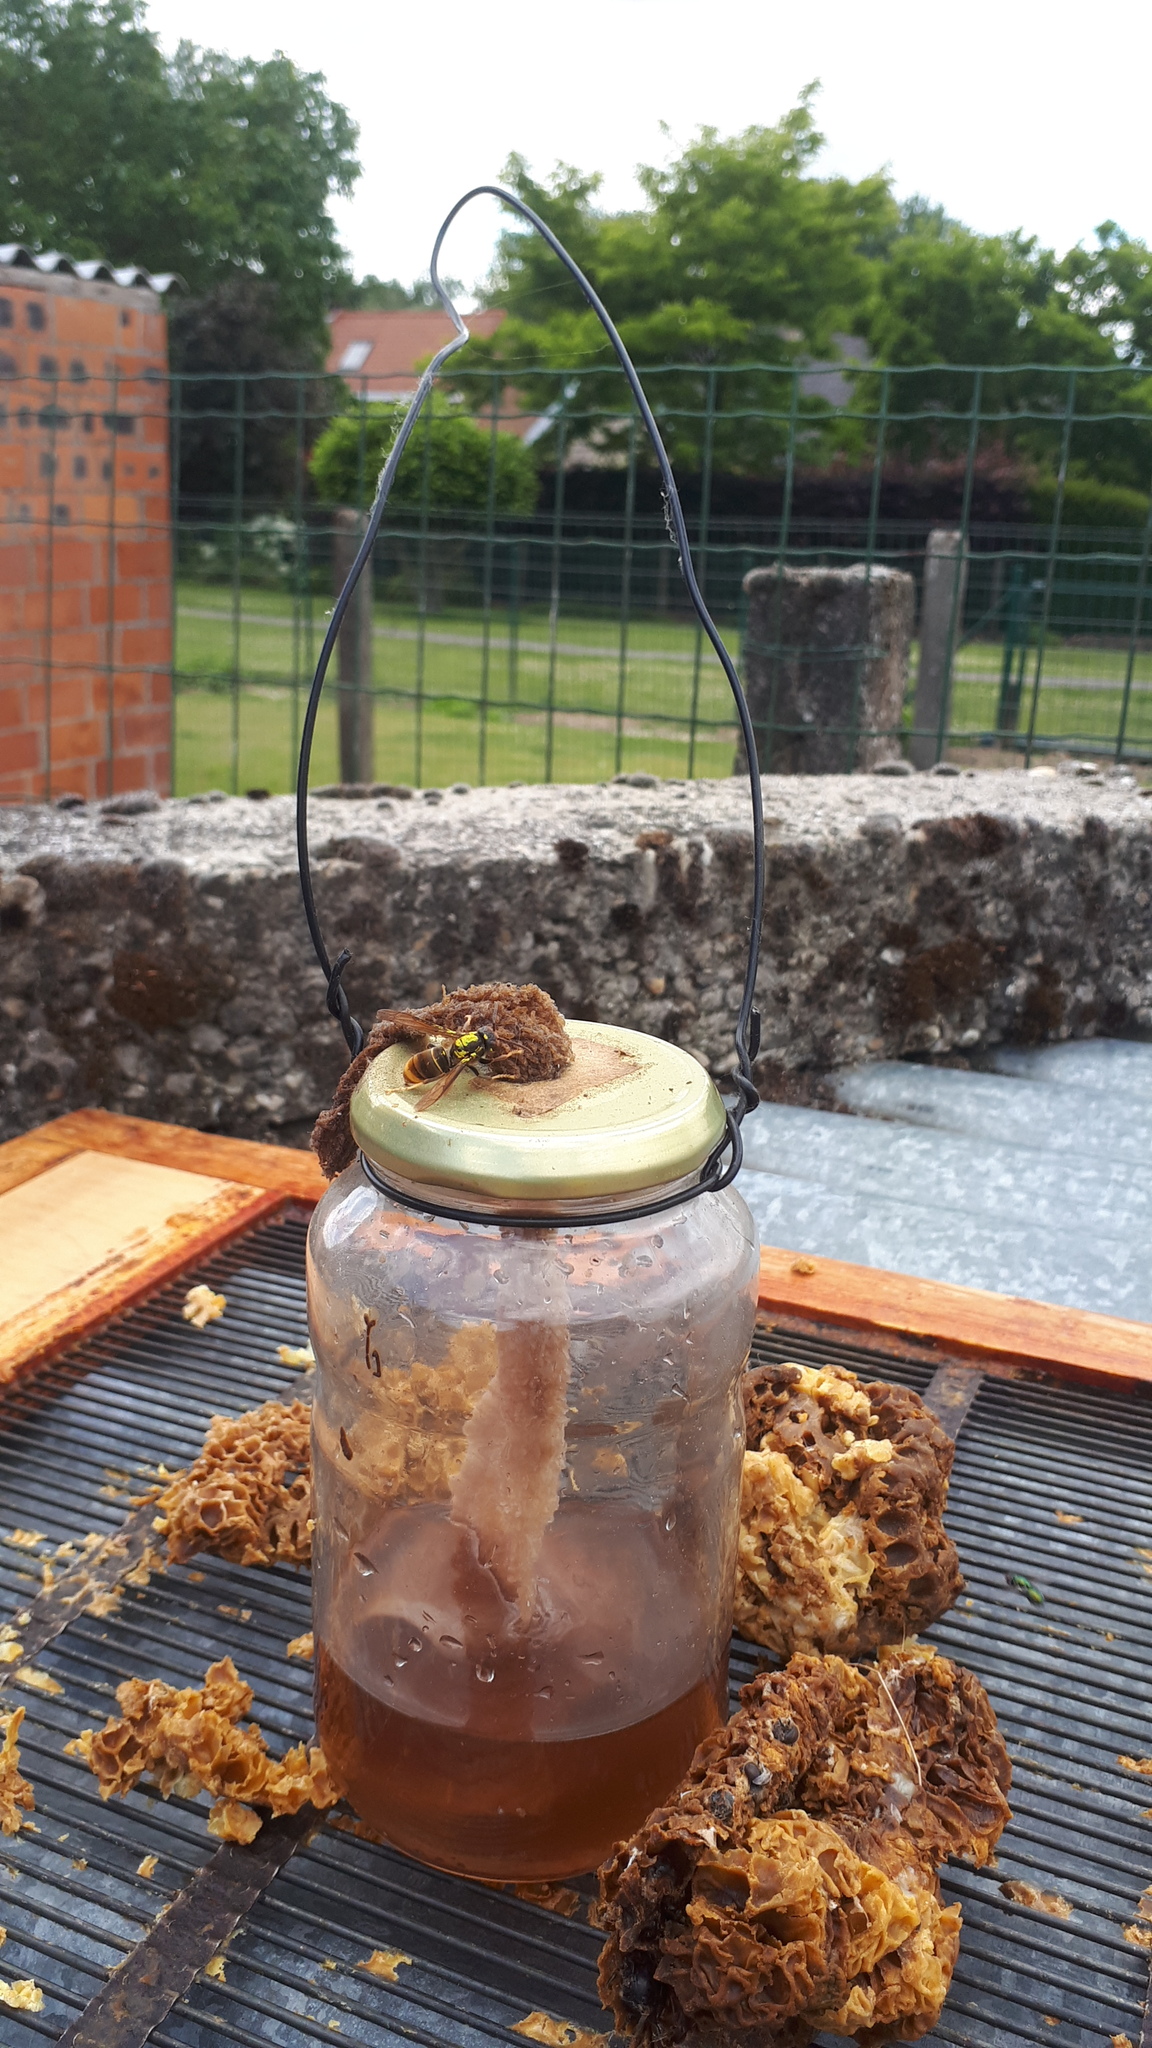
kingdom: Animalia
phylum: Arthropoda
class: Insecta
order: Hymenoptera
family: Vespidae
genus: Vespa
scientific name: Vespa velutina
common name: Asian hornet
